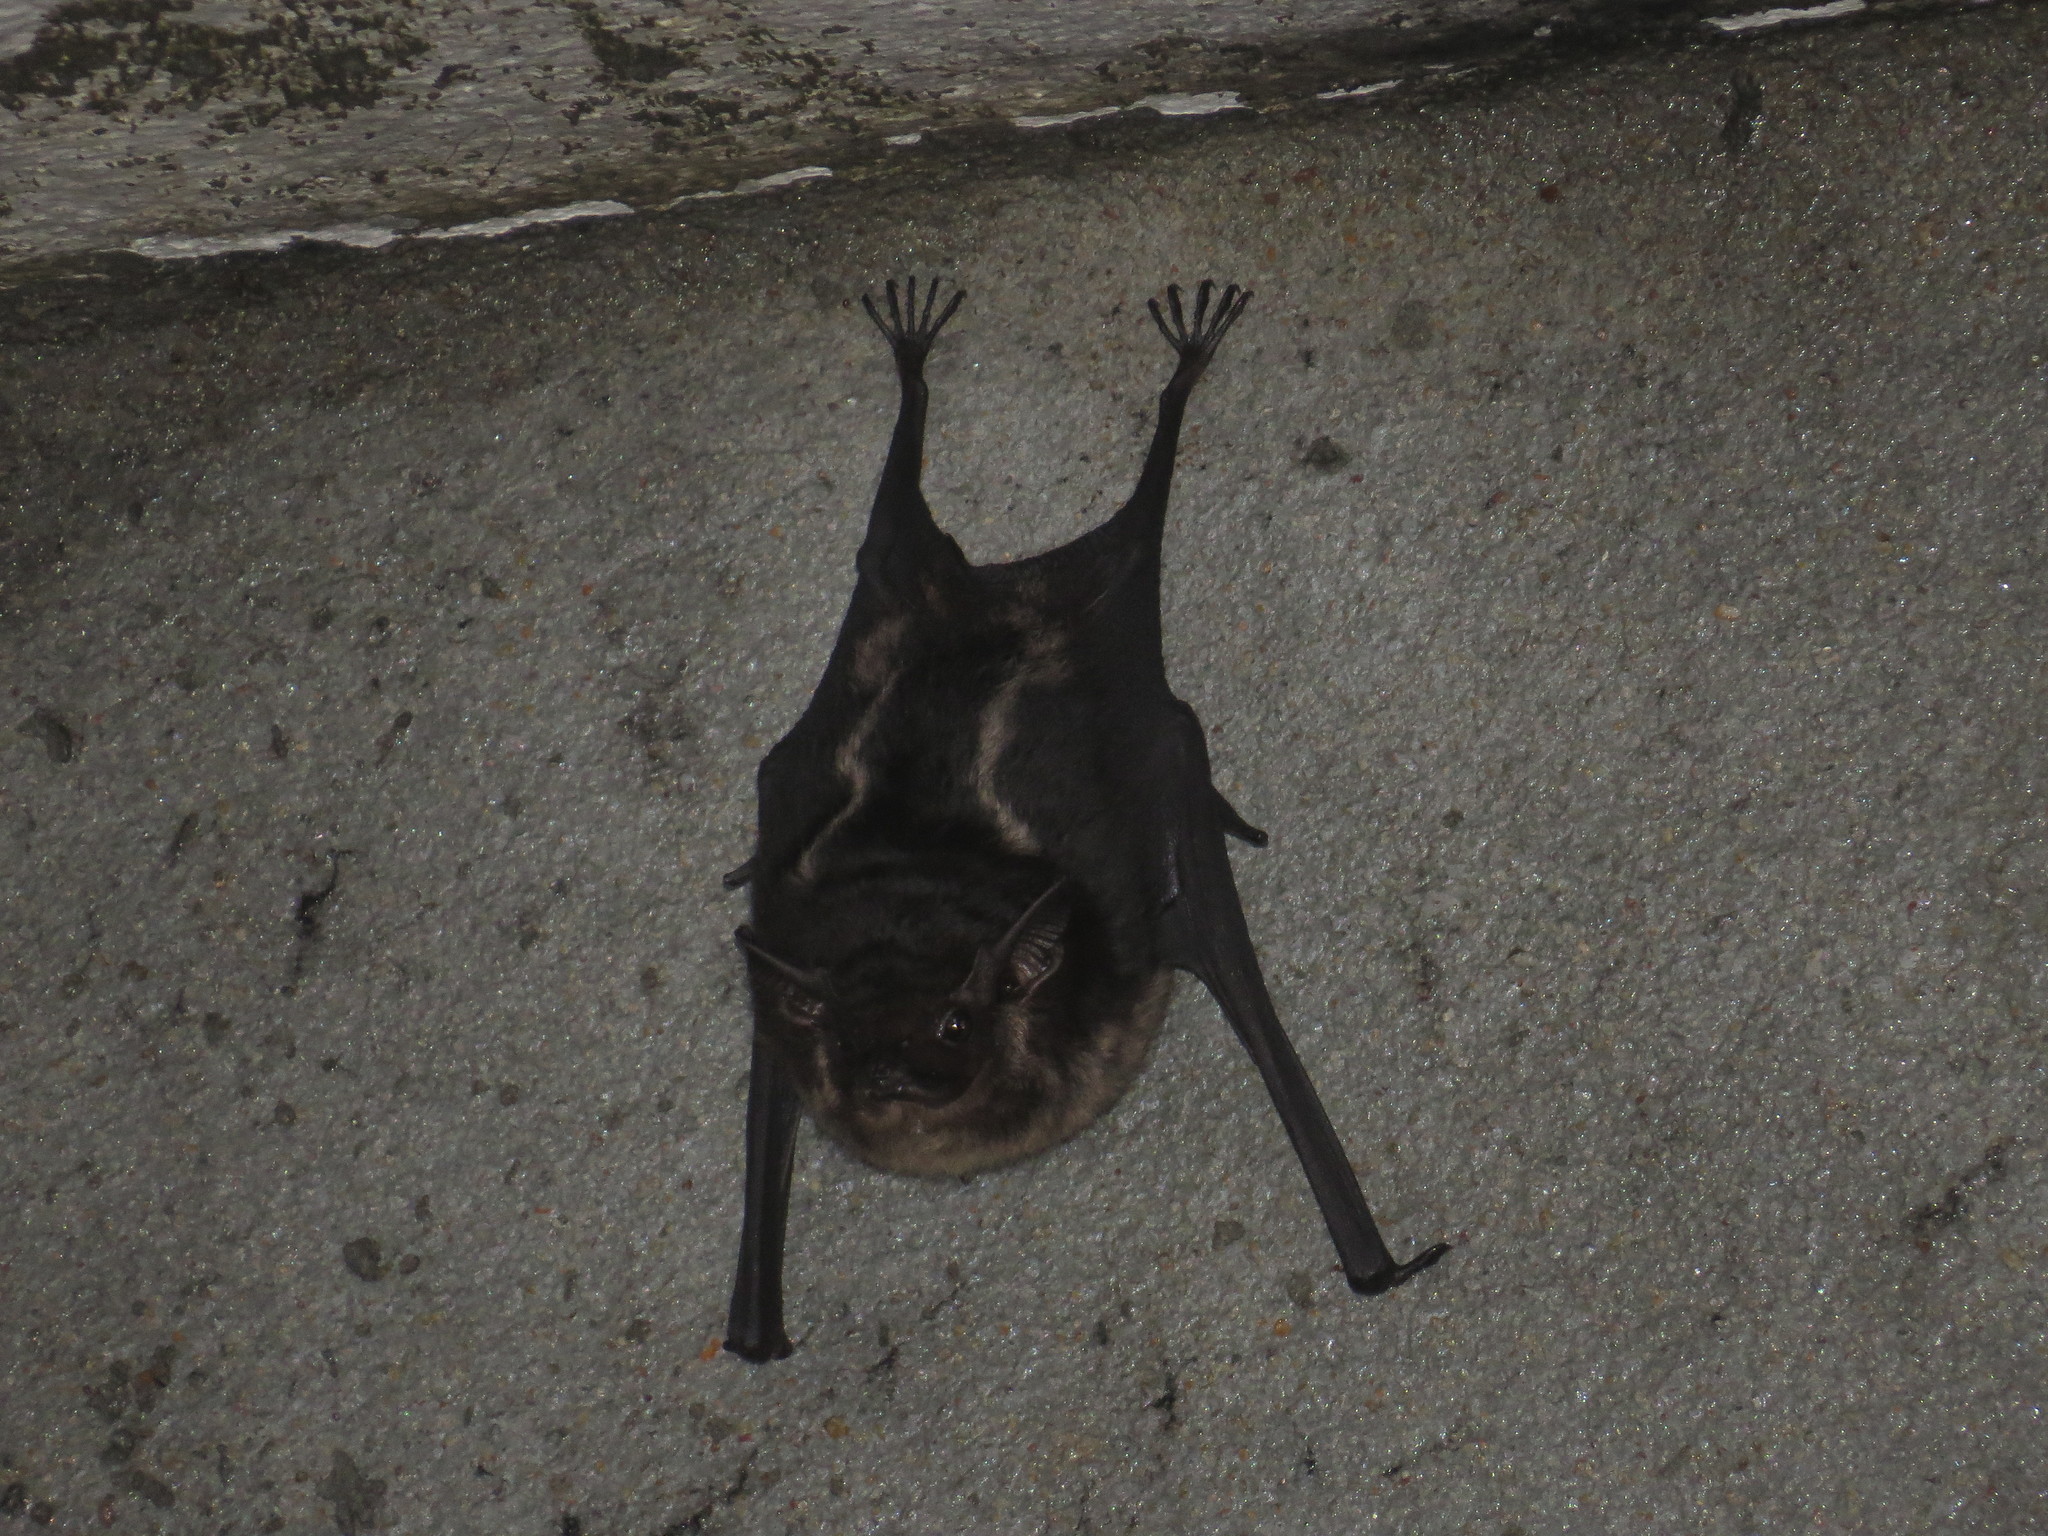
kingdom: Animalia
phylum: Chordata
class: Mammalia
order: Chiroptera
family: Emballonuridae
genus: Saccopteryx
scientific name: Saccopteryx bilineata
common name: Greater sac-winged bat
